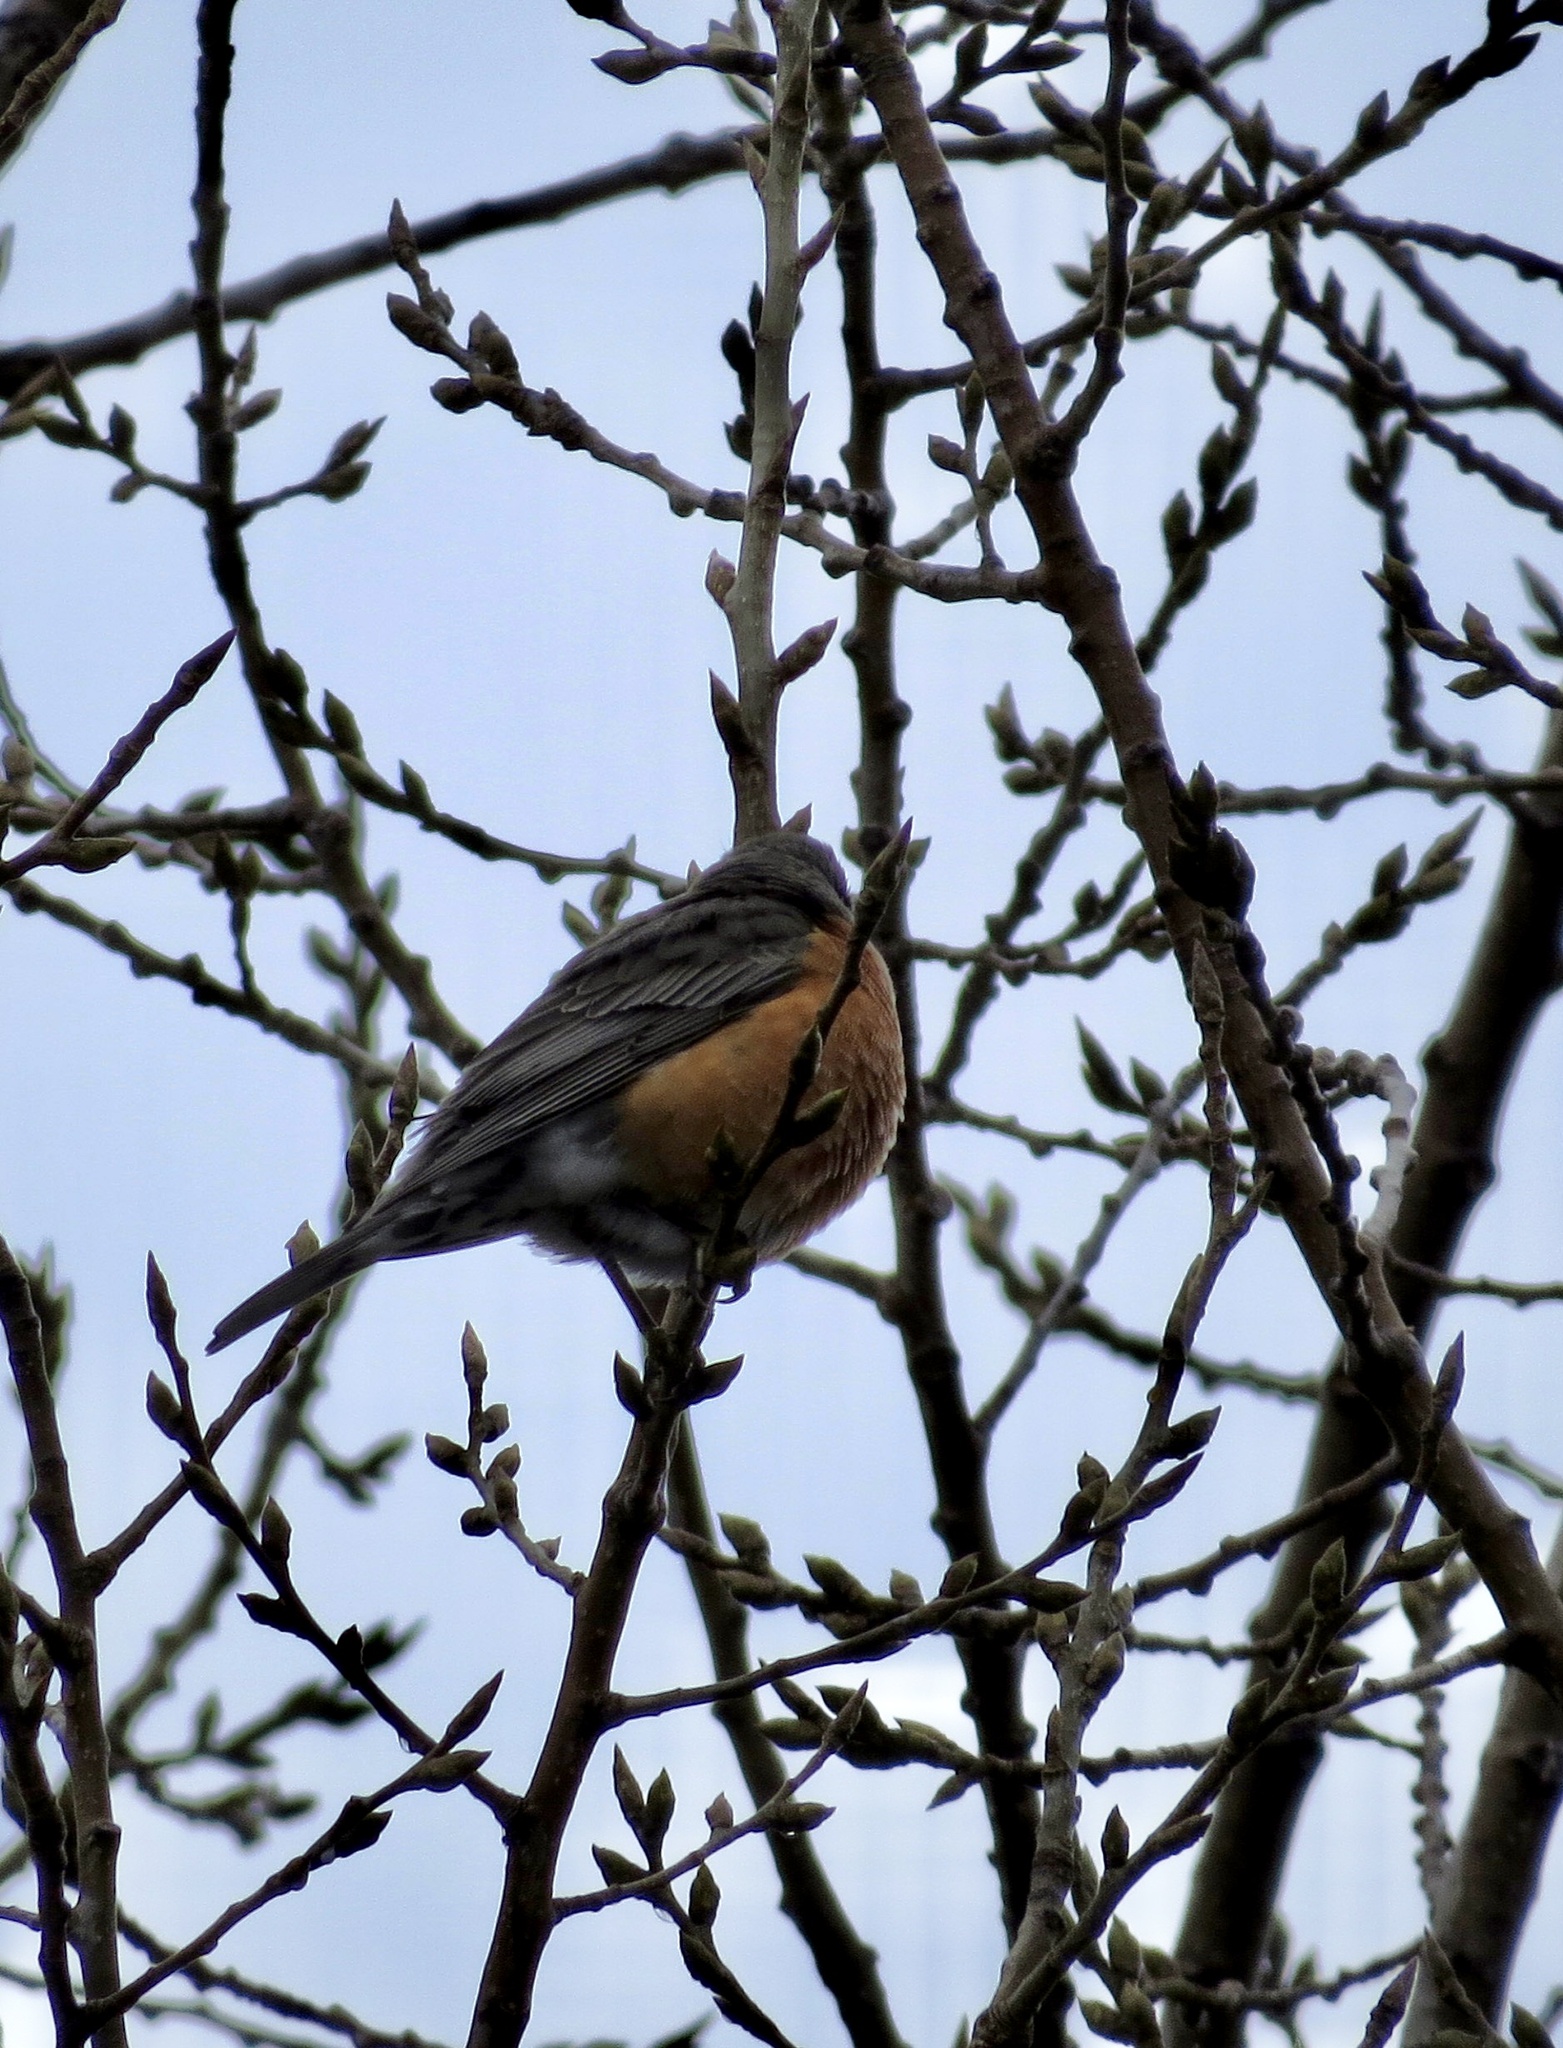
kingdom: Animalia
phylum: Chordata
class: Aves
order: Passeriformes
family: Turdidae
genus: Turdus
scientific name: Turdus migratorius
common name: American robin
